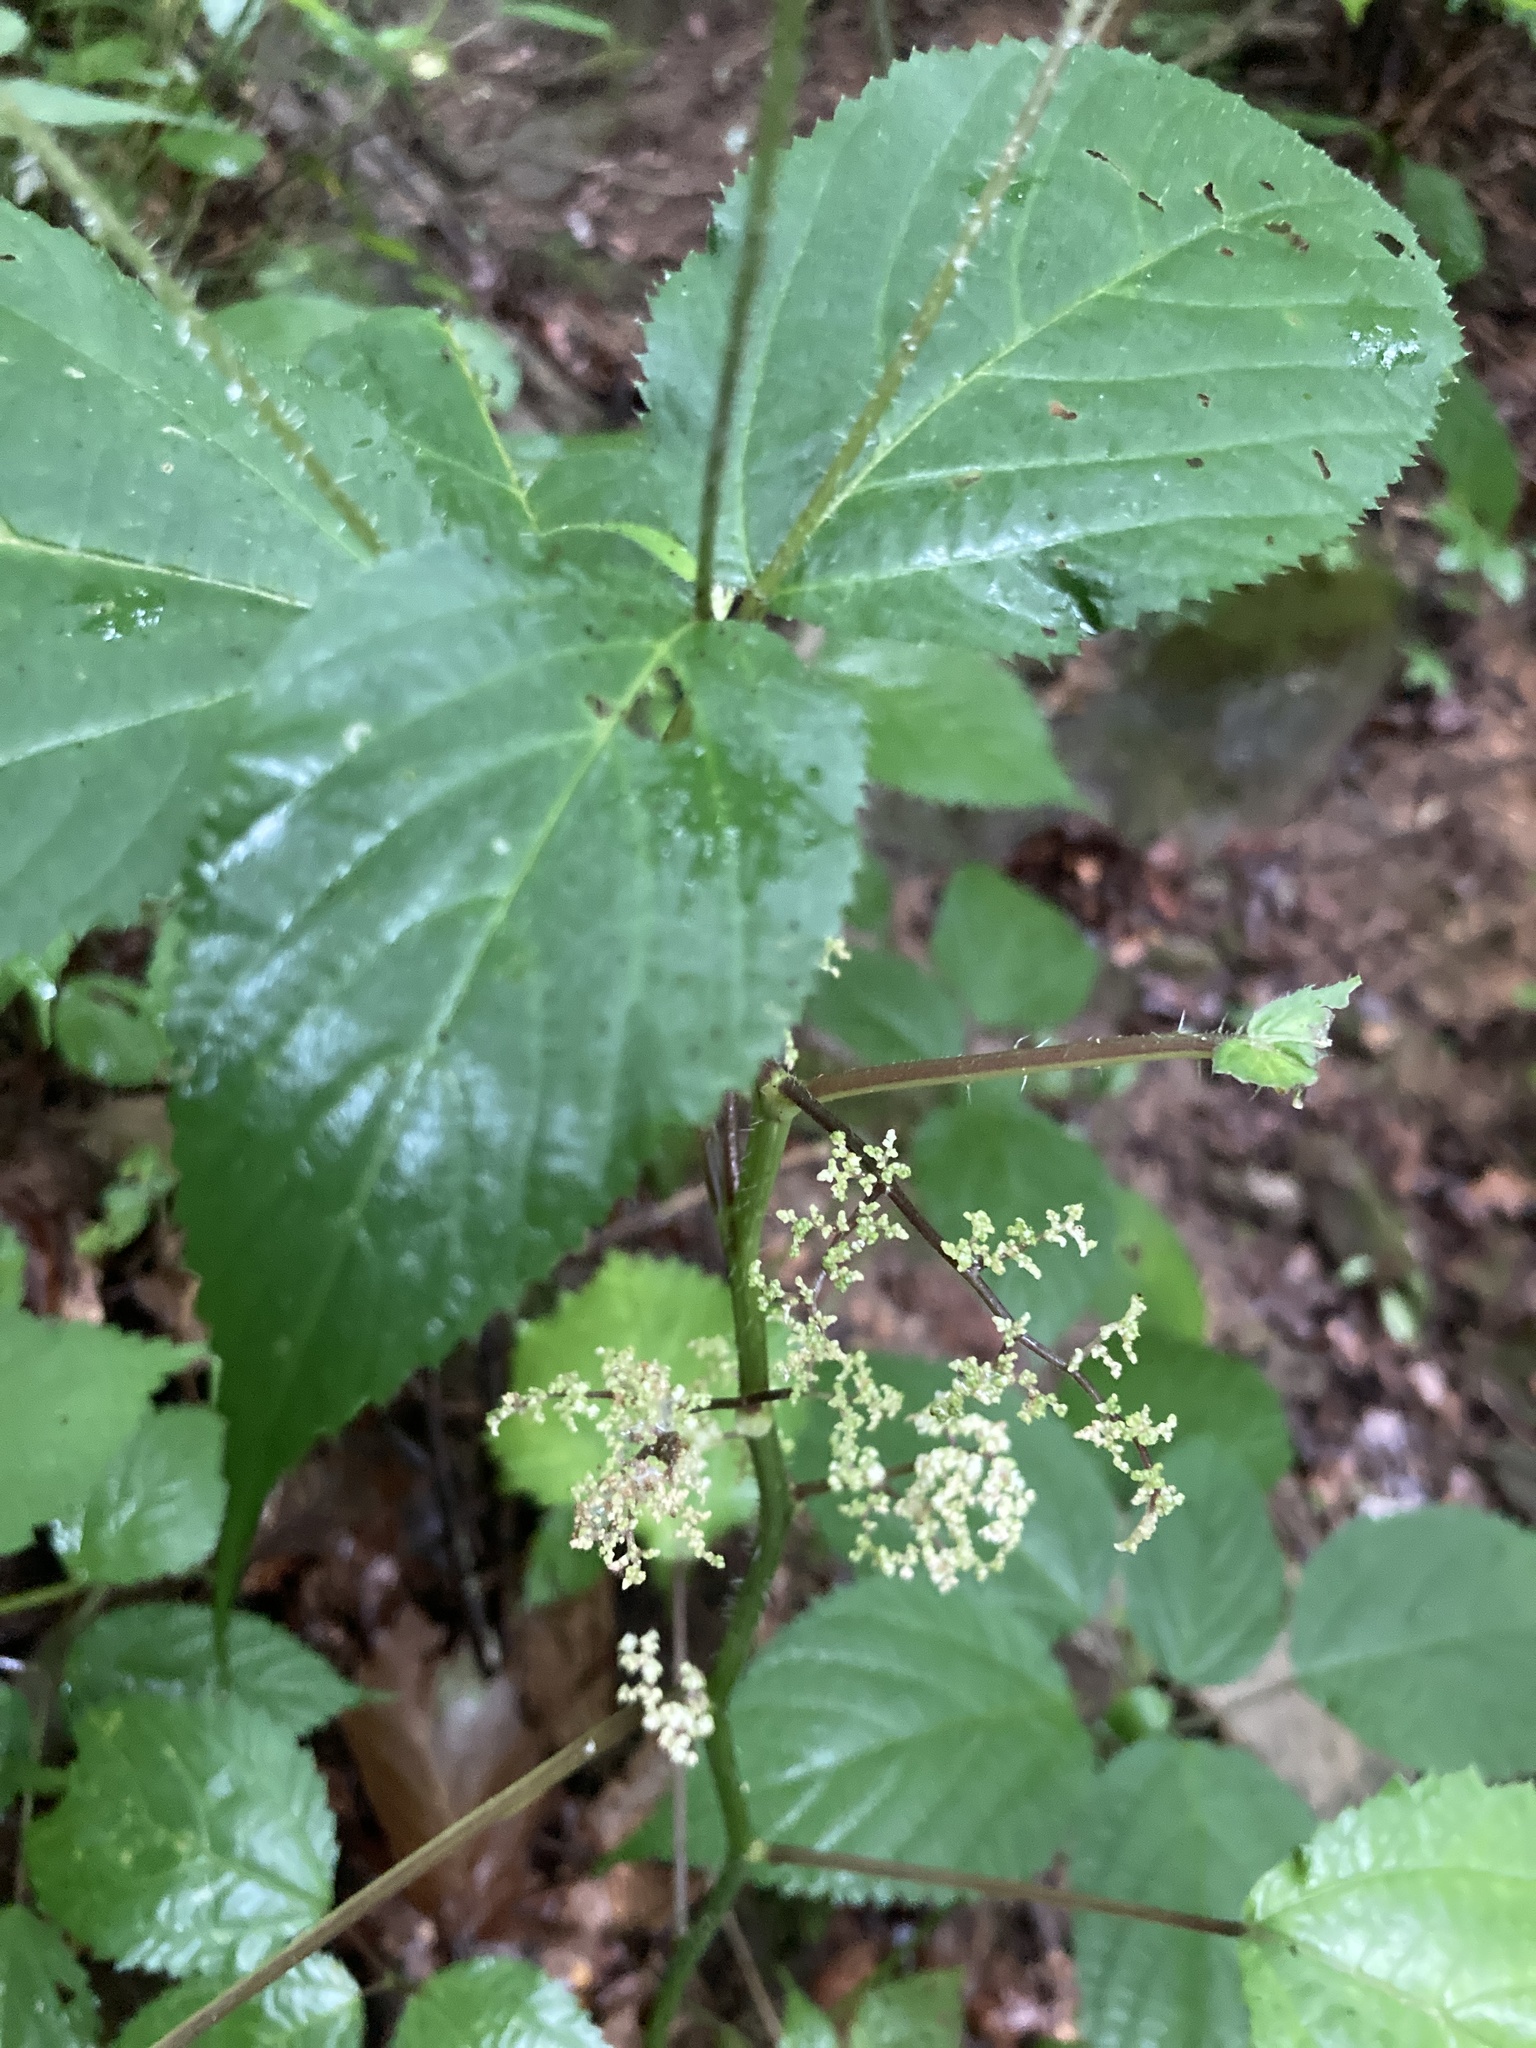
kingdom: Plantae
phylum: Tracheophyta
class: Magnoliopsida
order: Rosales
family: Urticaceae
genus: Laportea
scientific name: Laportea canadensis
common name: Canada nettle
